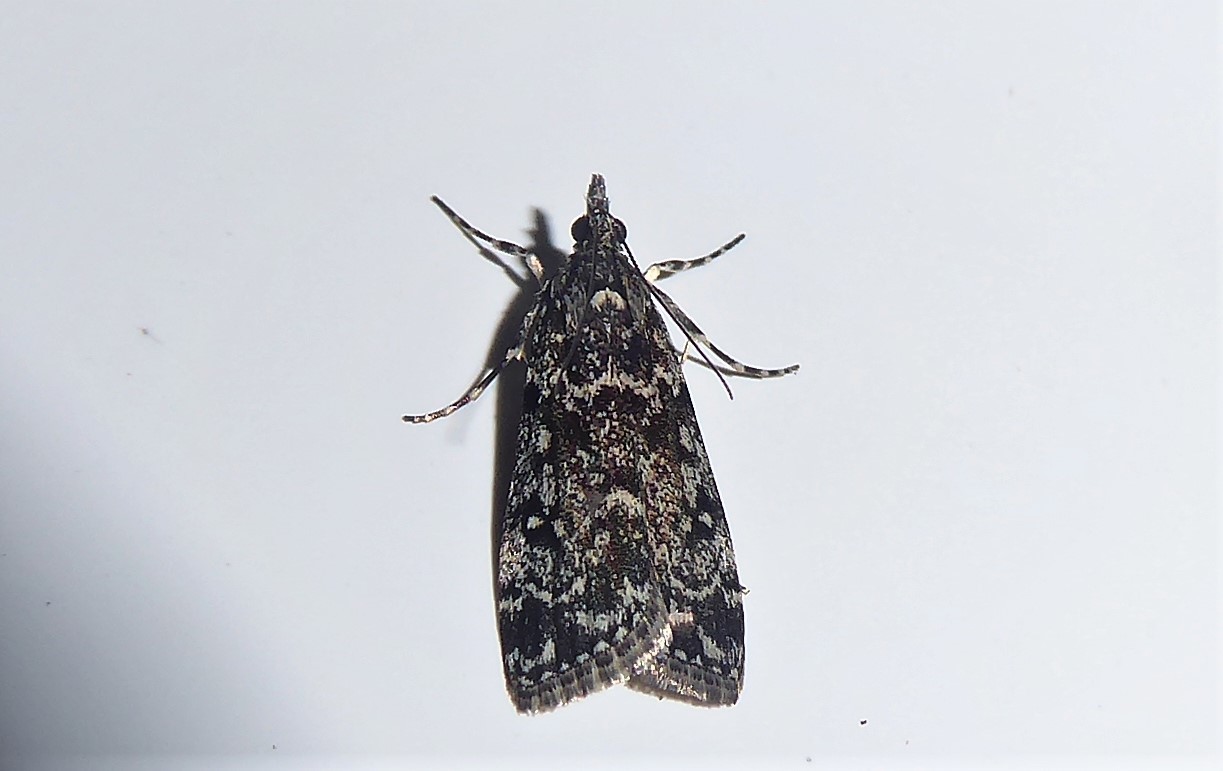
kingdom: Animalia
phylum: Arthropoda
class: Insecta
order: Lepidoptera
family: Crambidae
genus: Eudonia
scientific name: Eudonia philerga
